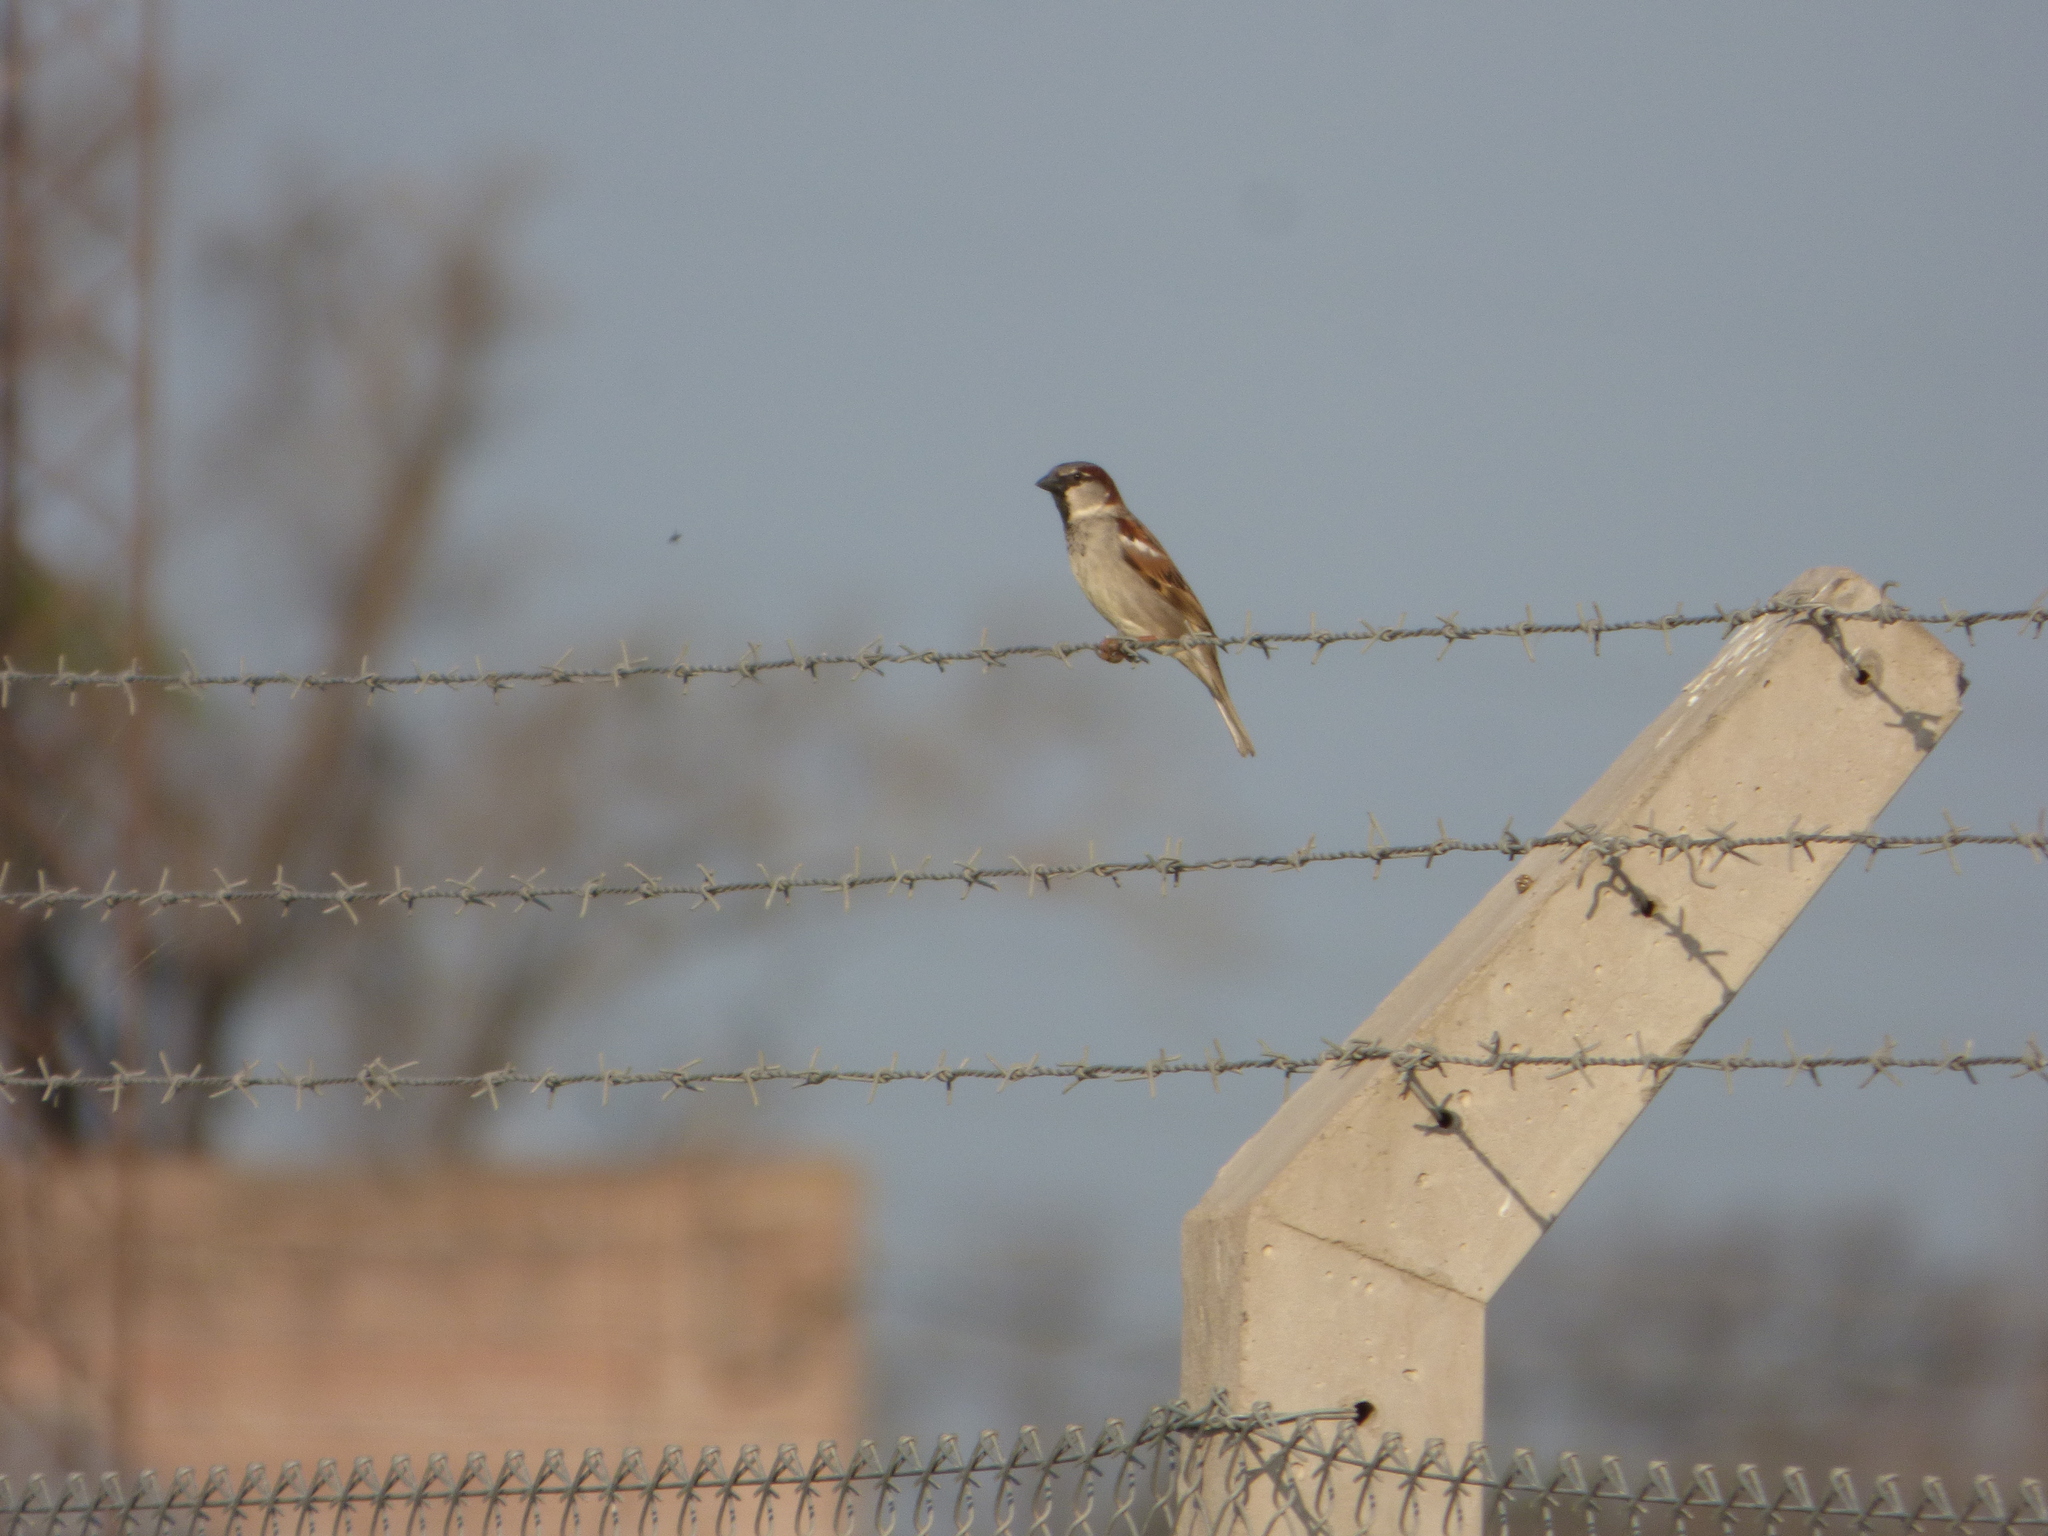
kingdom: Animalia
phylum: Chordata
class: Aves
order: Passeriformes
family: Passeridae
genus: Passer
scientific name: Passer domesticus
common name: House sparrow
